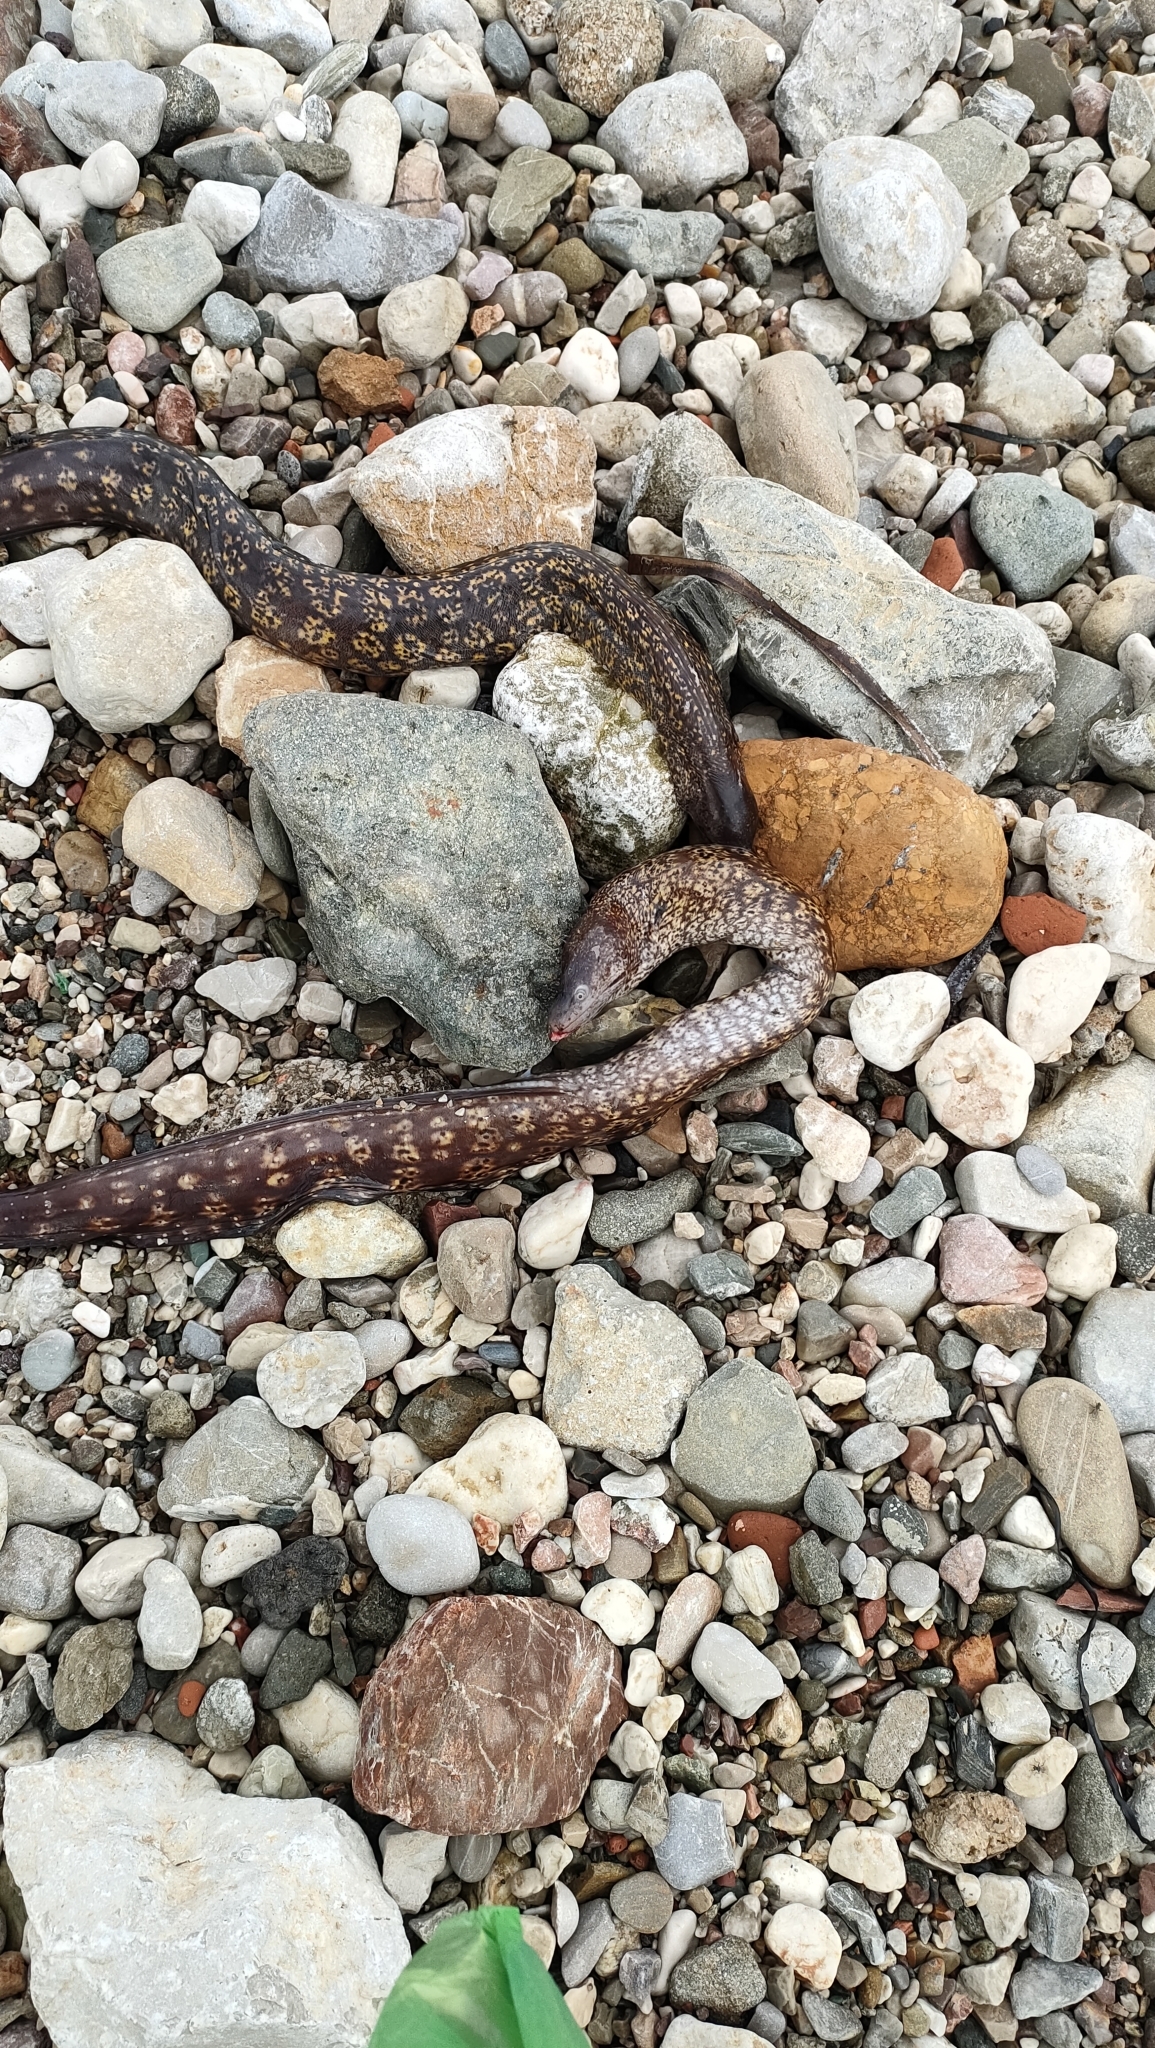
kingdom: Animalia
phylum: Chordata
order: Anguilliformes
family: Muraenidae
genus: Muraena
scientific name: Muraena helena
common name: Mediterranean moray
